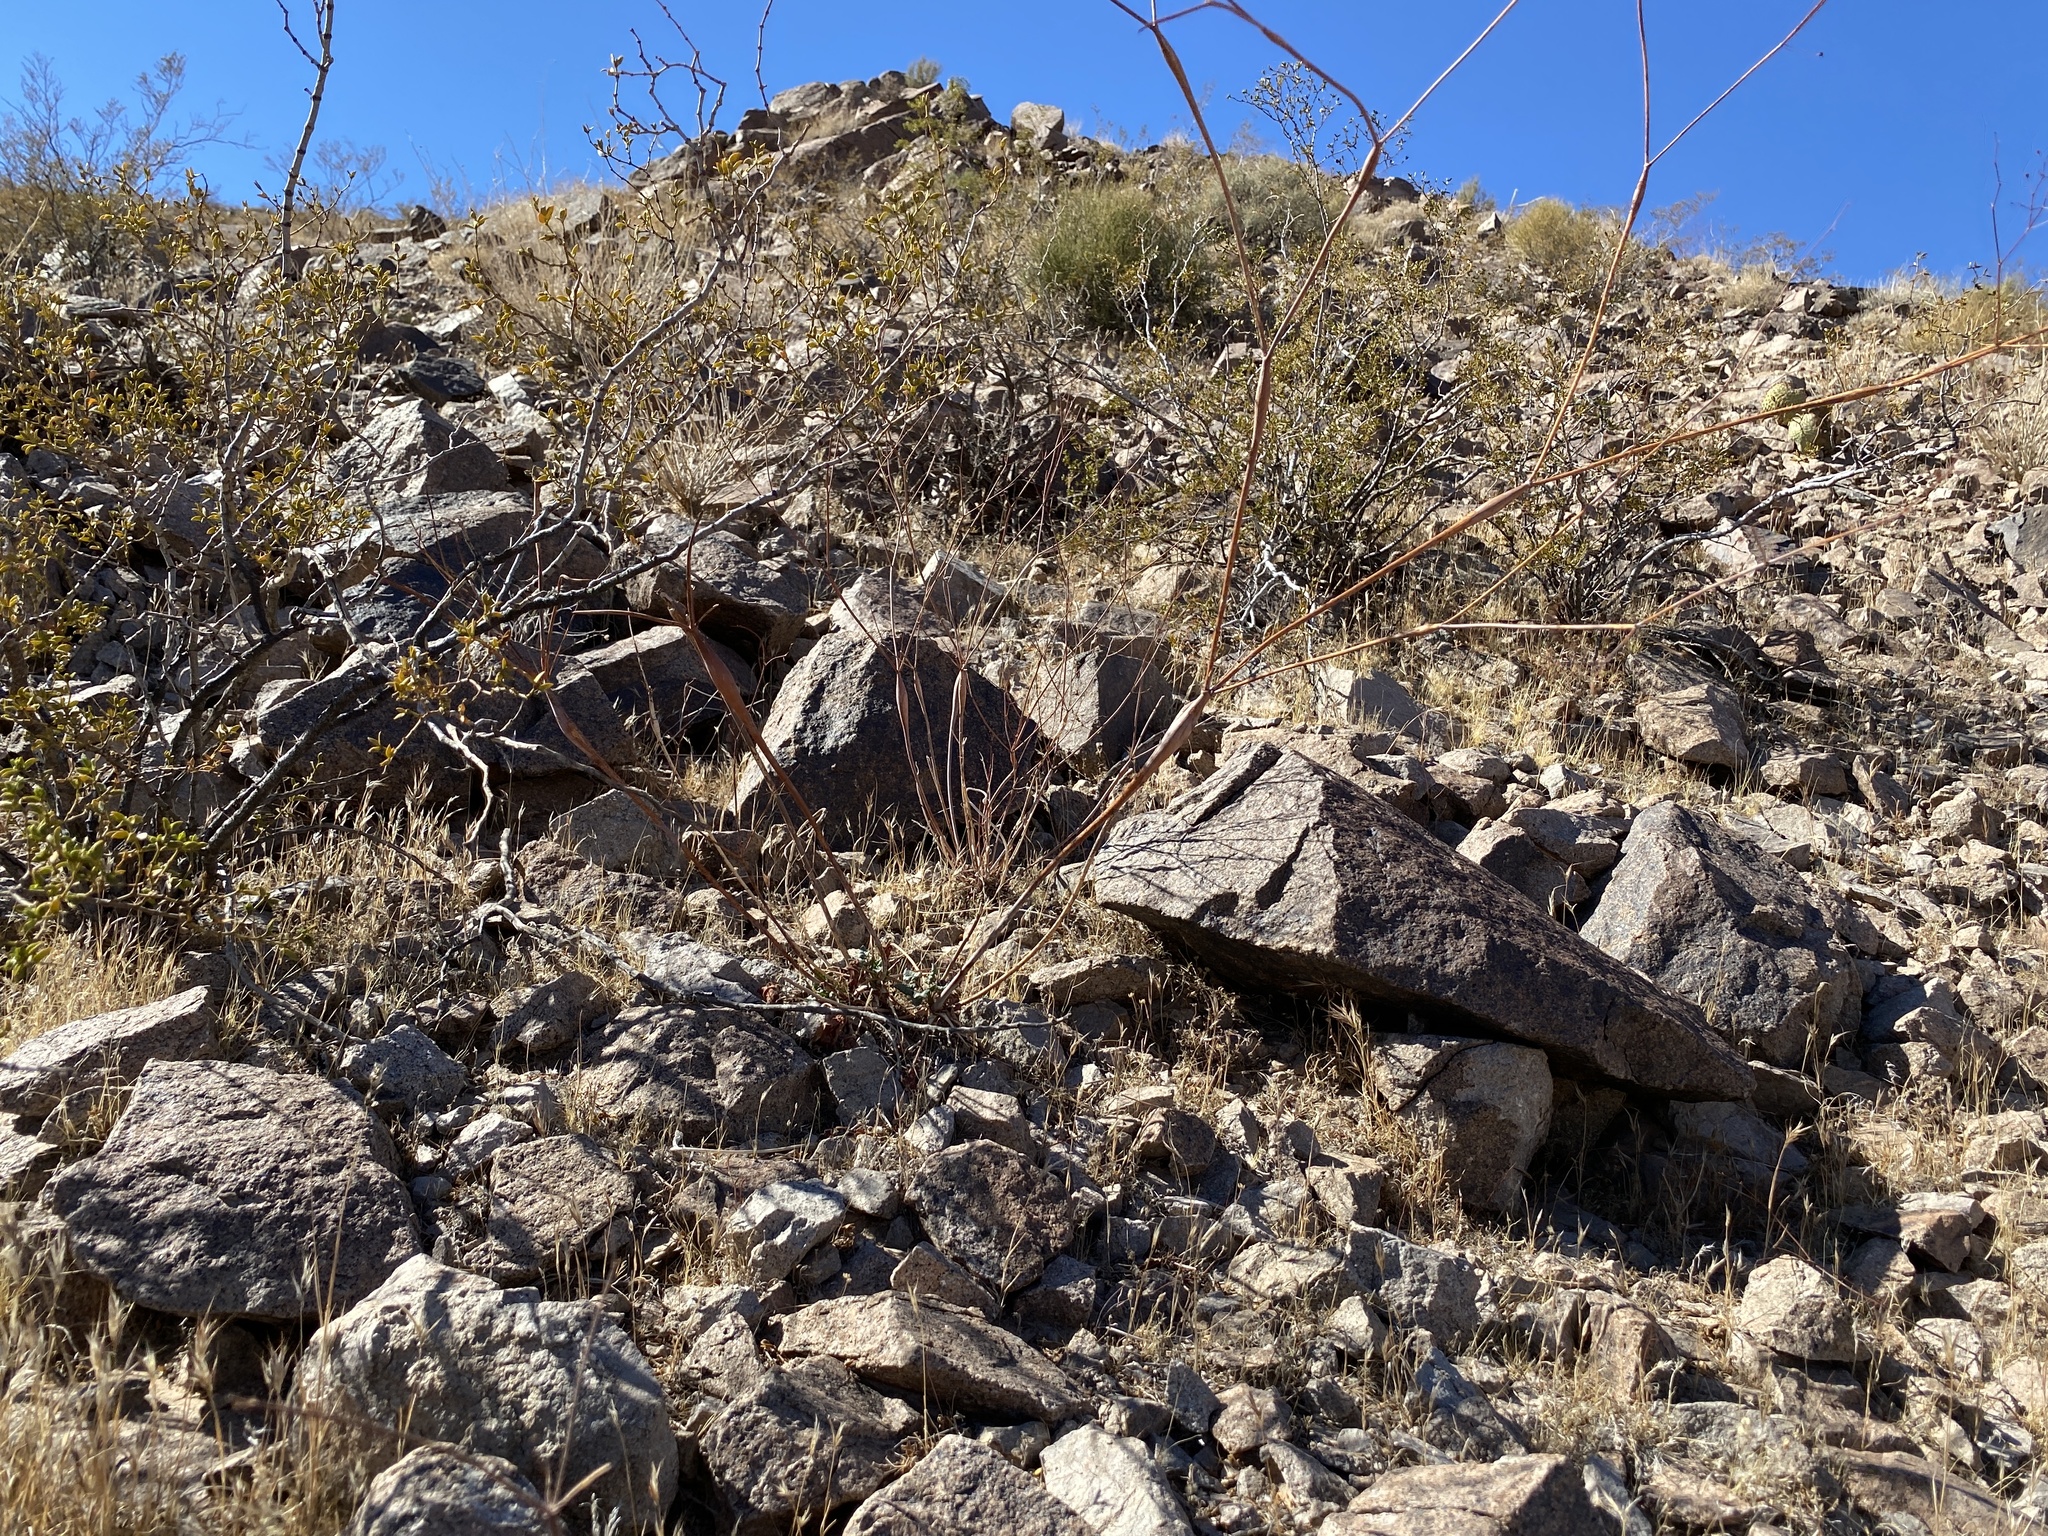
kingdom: Plantae
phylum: Tracheophyta
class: Magnoliopsida
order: Caryophyllales
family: Polygonaceae
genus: Eriogonum
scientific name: Eriogonum inflatum
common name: Desert trumpet
